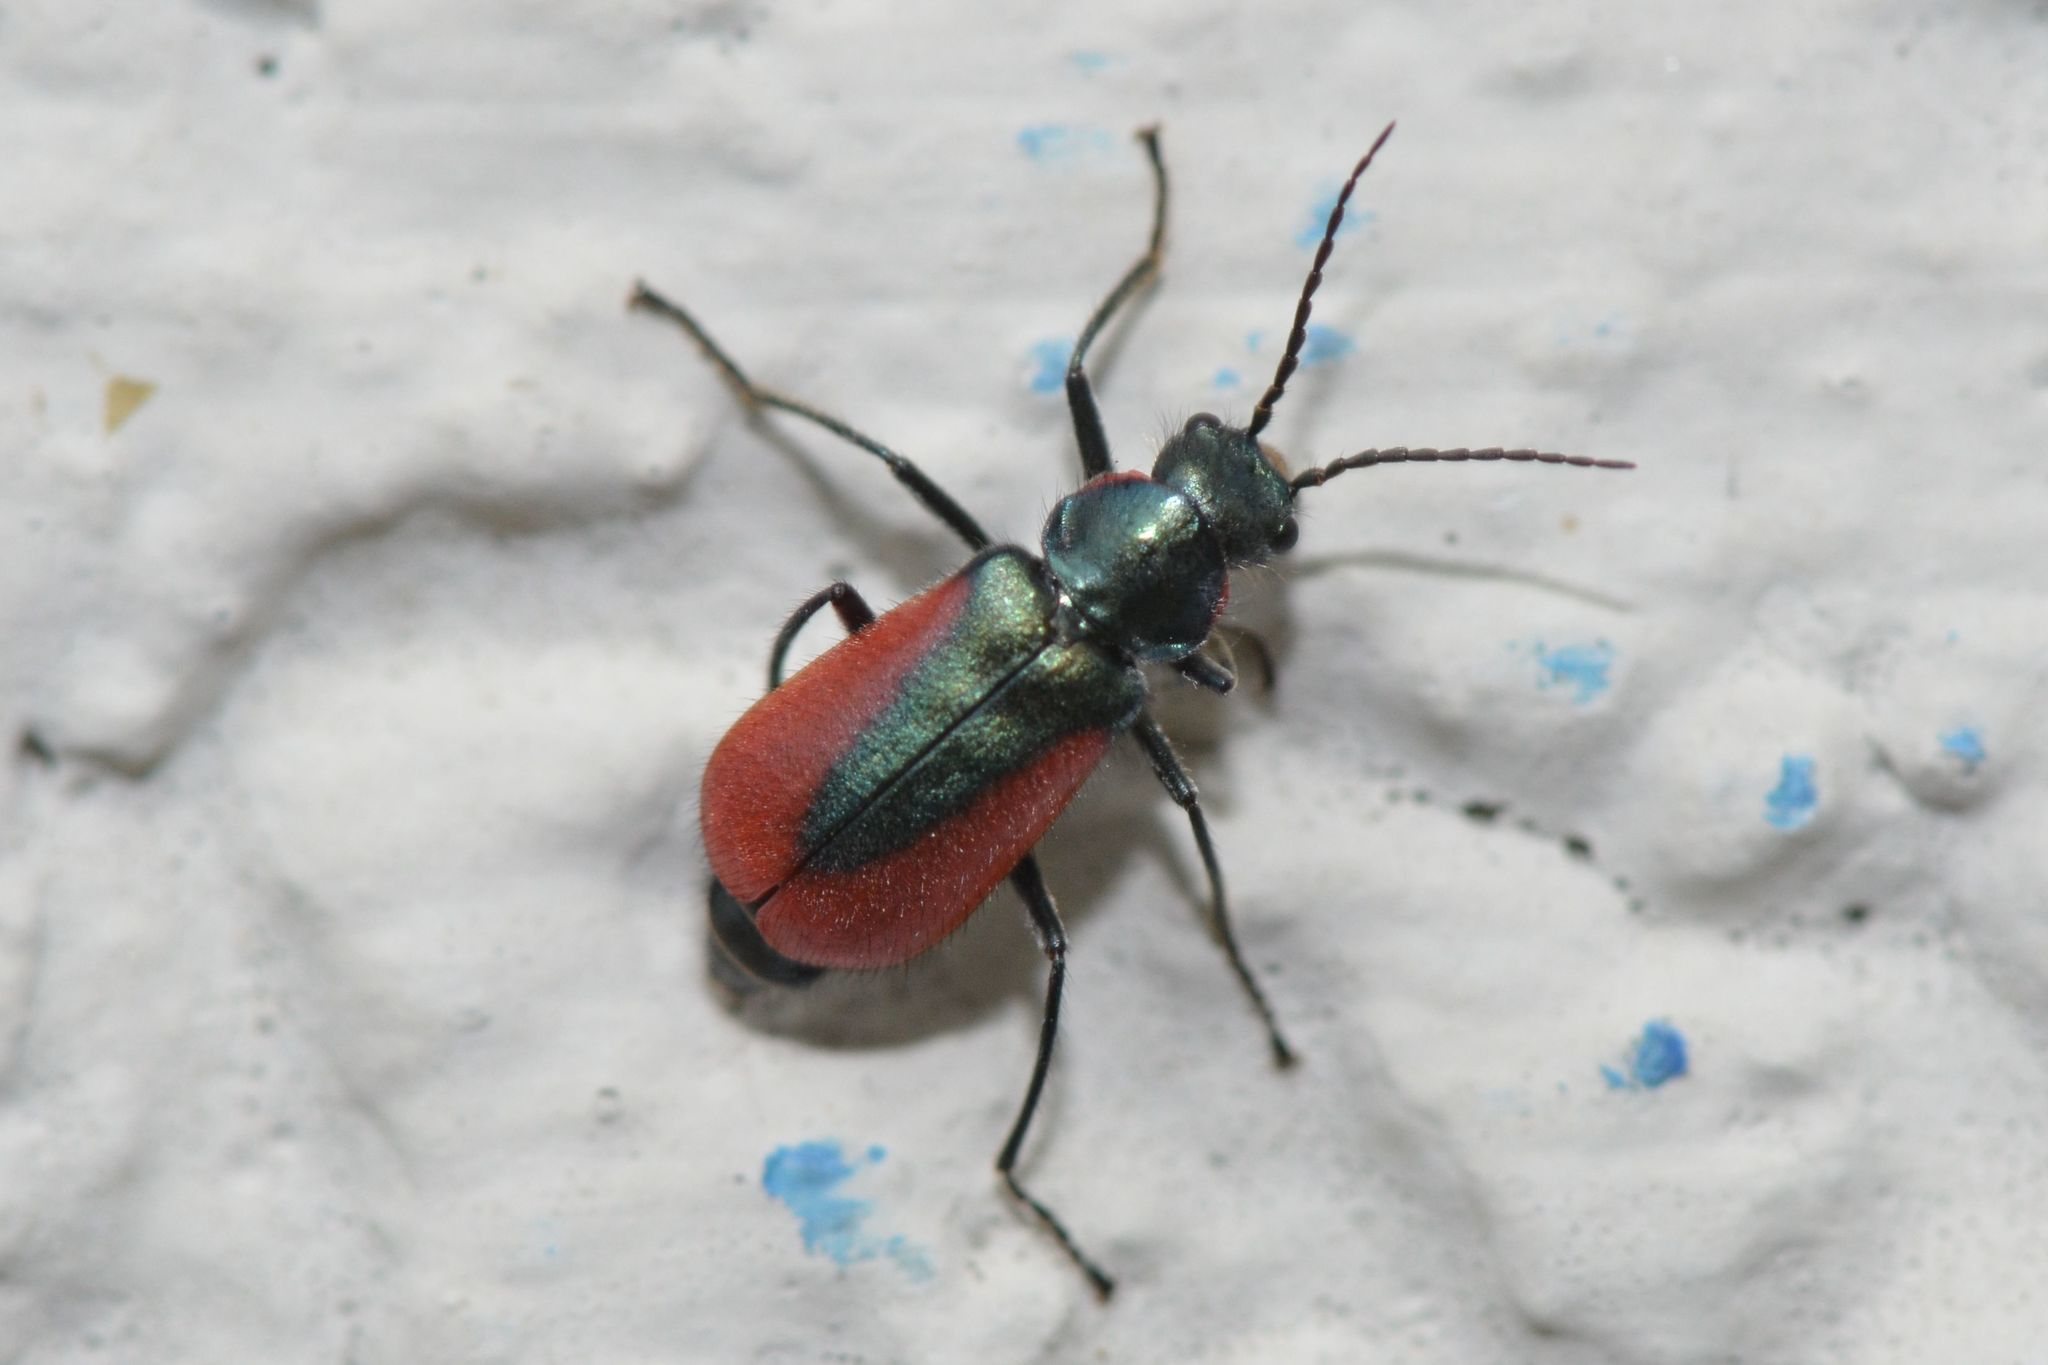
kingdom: Animalia
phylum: Arthropoda
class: Insecta
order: Coleoptera
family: Melyridae
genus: Malachius
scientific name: Malachius aeneus
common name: Scarlet malachite beetle
